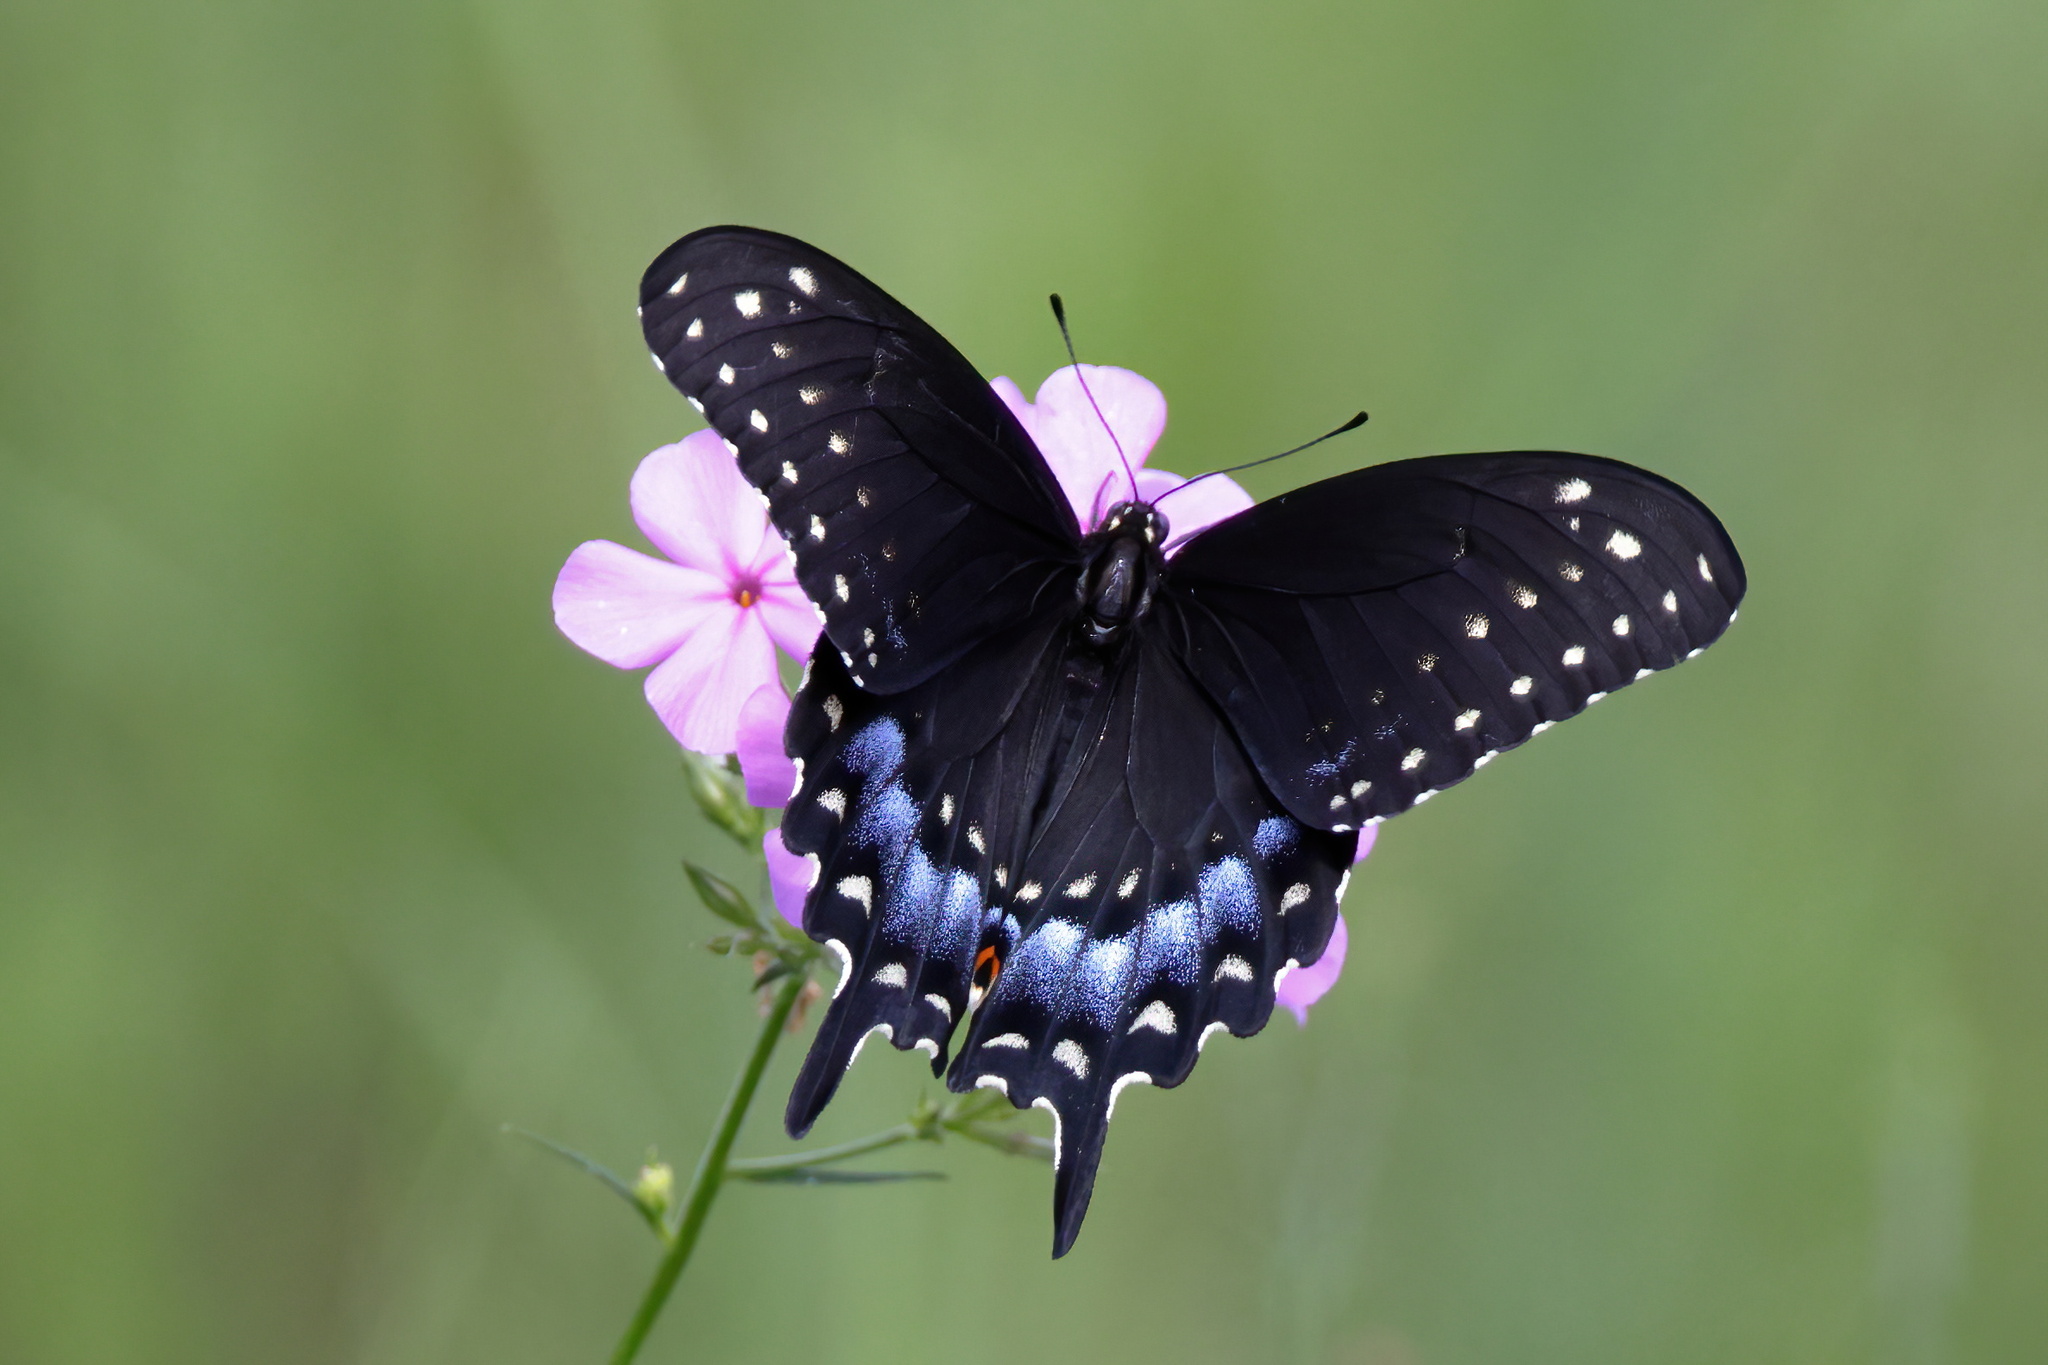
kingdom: Animalia
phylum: Arthropoda
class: Insecta
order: Lepidoptera
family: Papilionidae
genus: Papilio
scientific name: Papilio polyxenes
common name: Black swallowtail
